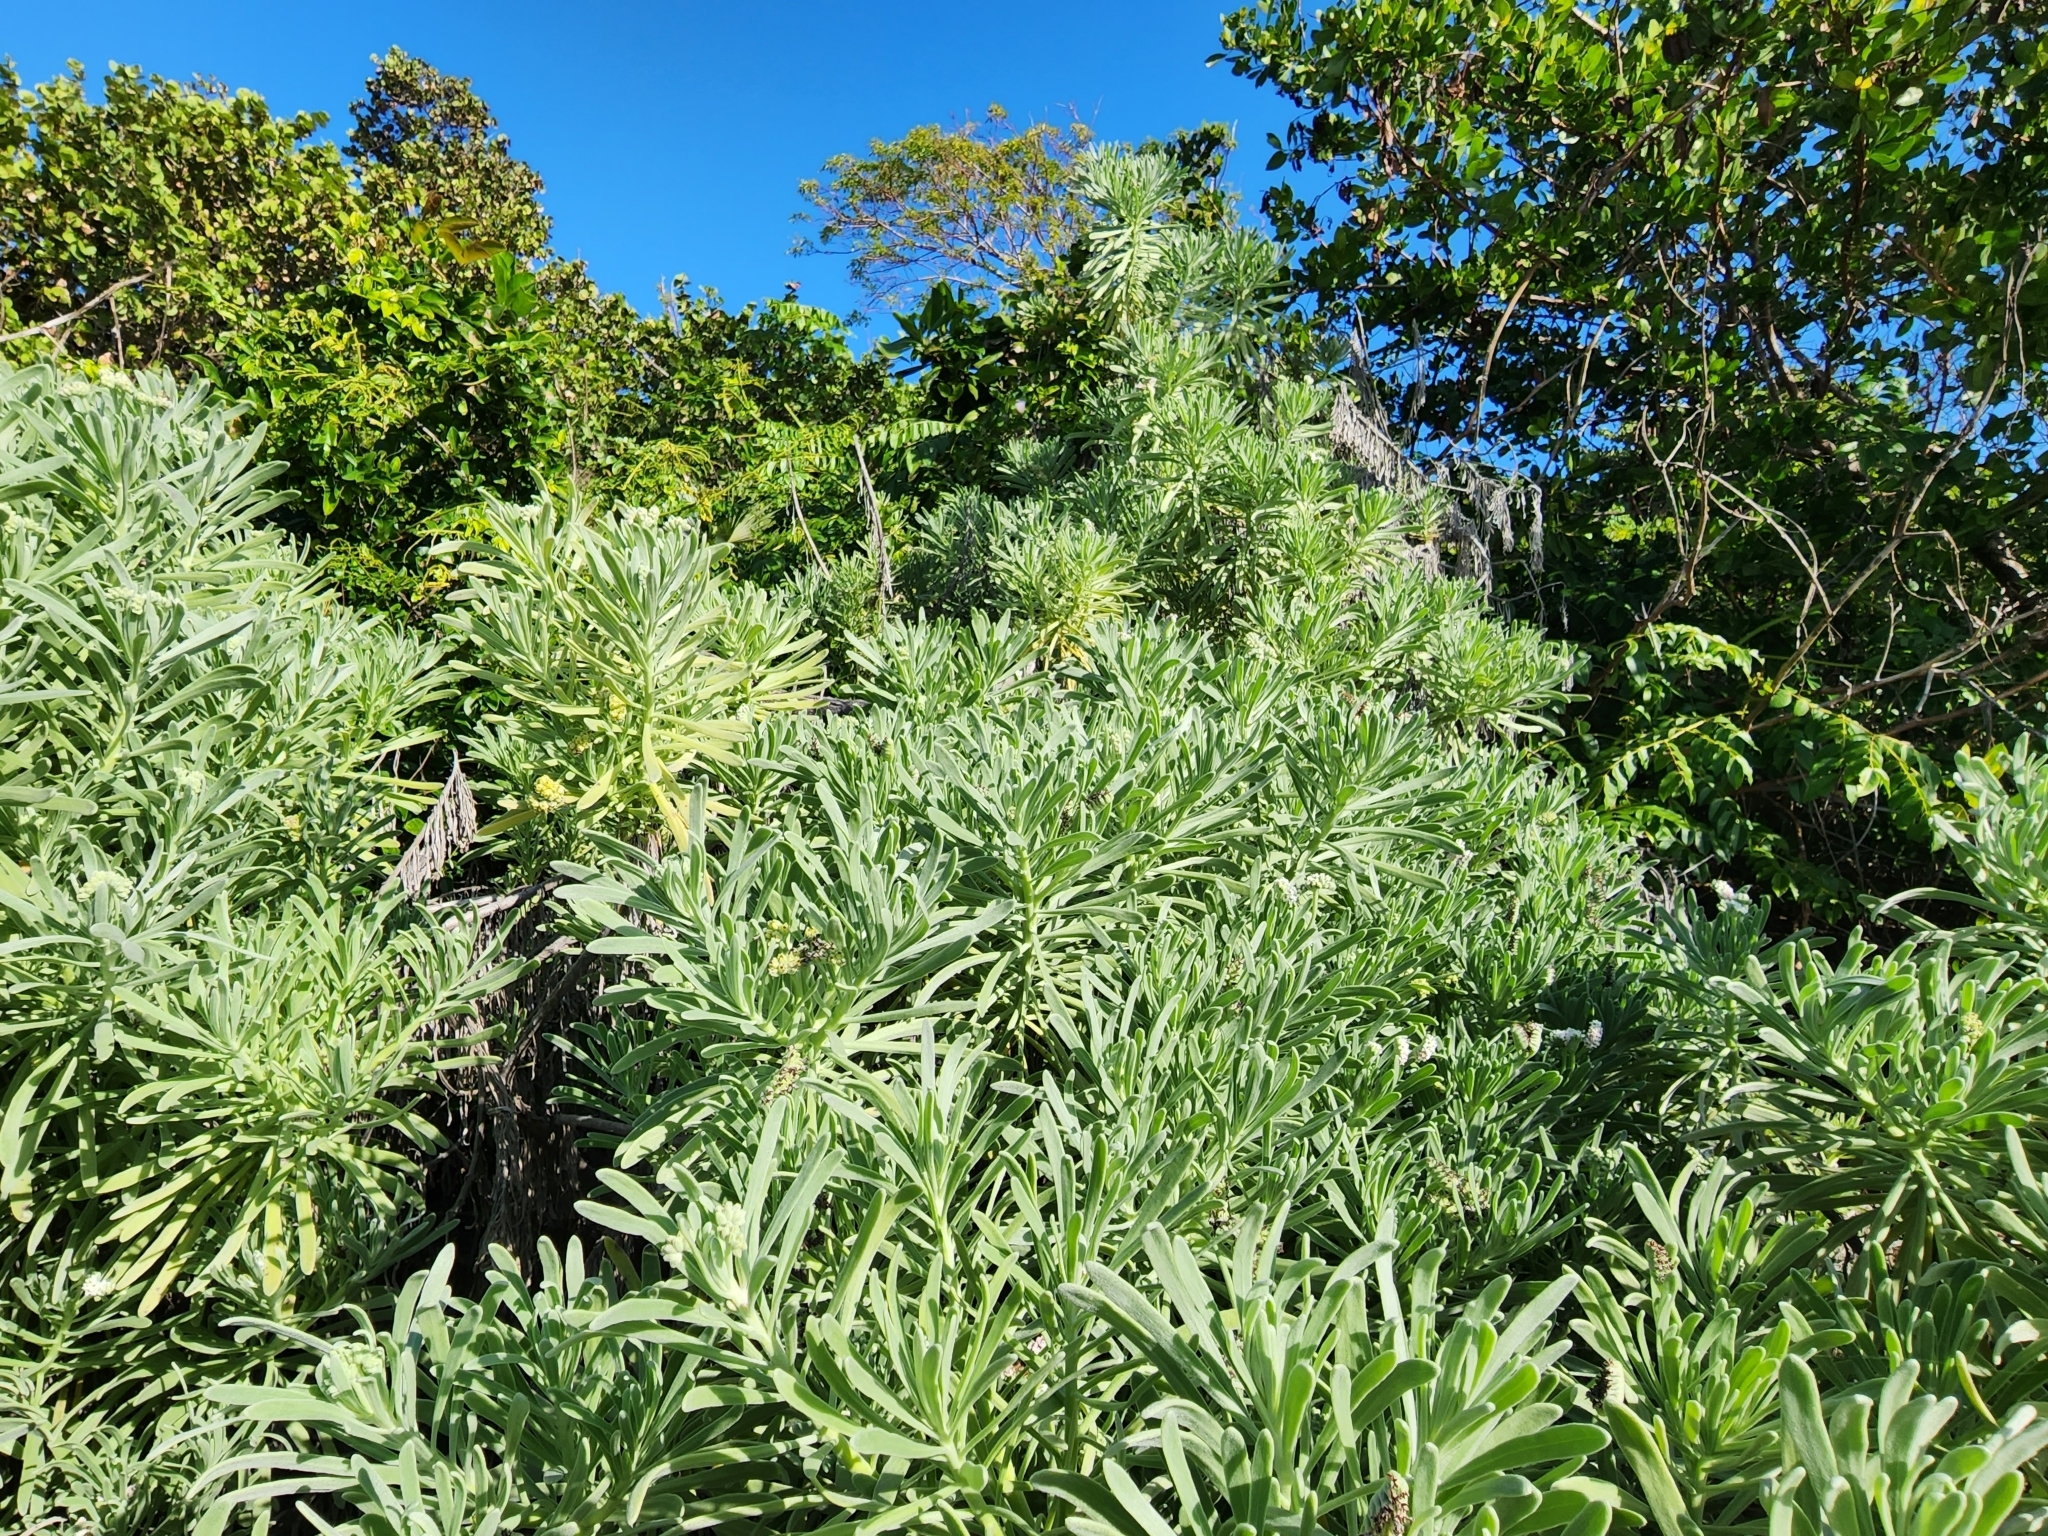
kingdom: Plantae
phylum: Tracheophyta
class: Magnoliopsida
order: Boraginales
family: Heliotropiaceae
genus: Tournefortia
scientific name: Tournefortia gnaphalodes
